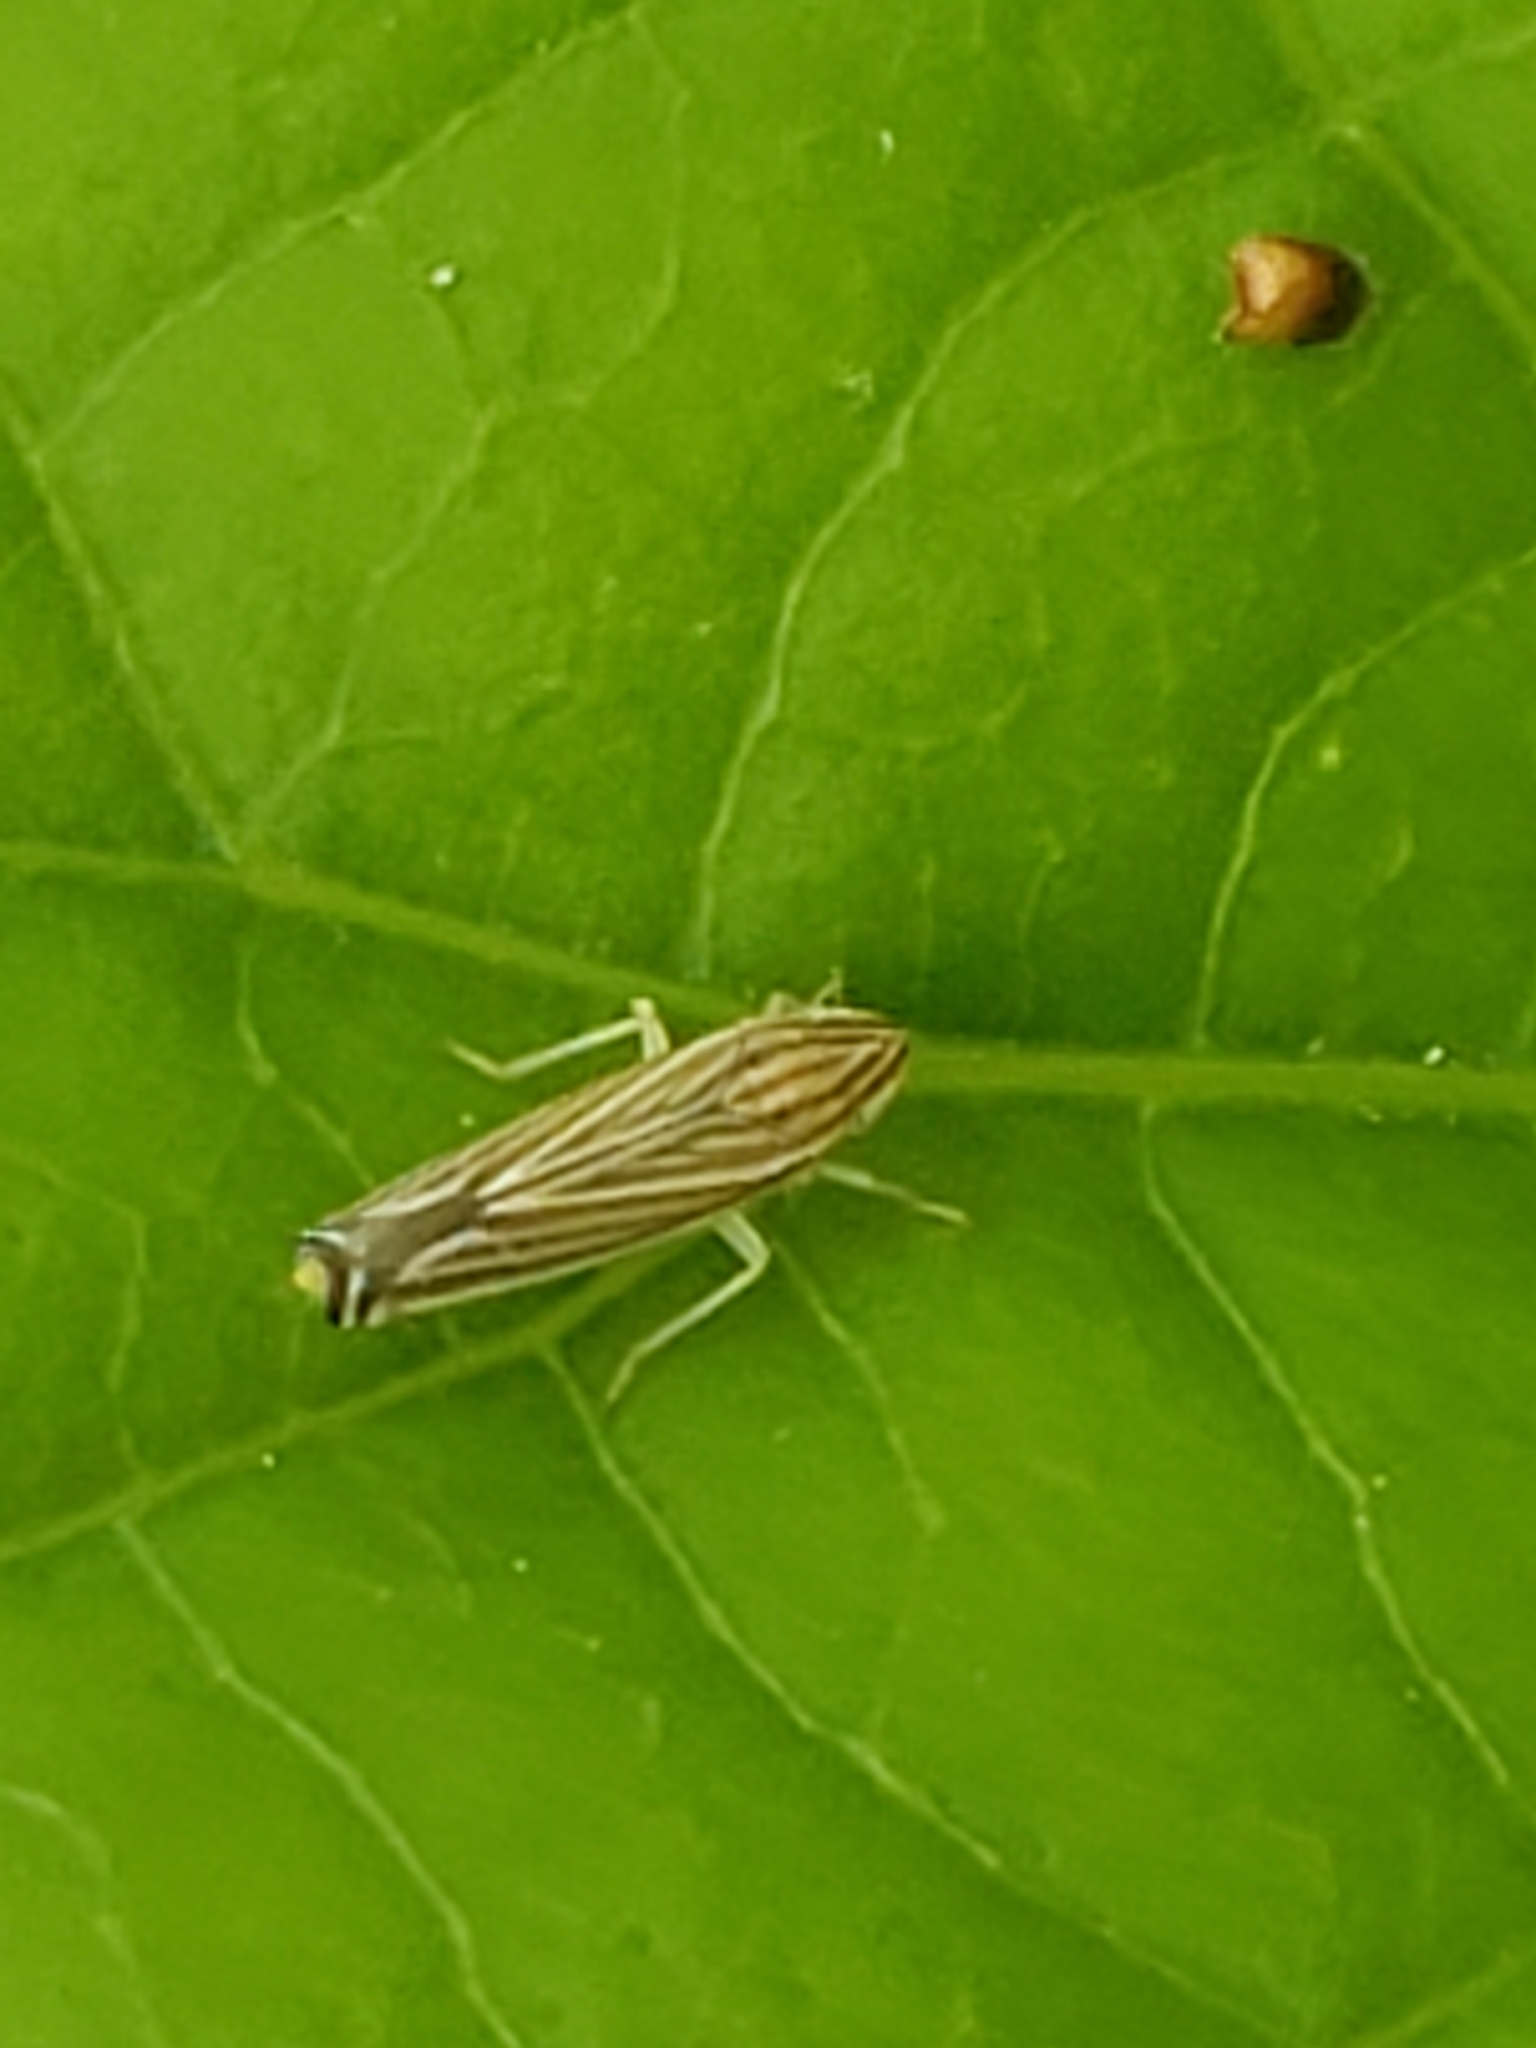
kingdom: Animalia
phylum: Arthropoda
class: Insecta
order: Hemiptera
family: Cicadellidae
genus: Sibovia
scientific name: Sibovia occatoria
